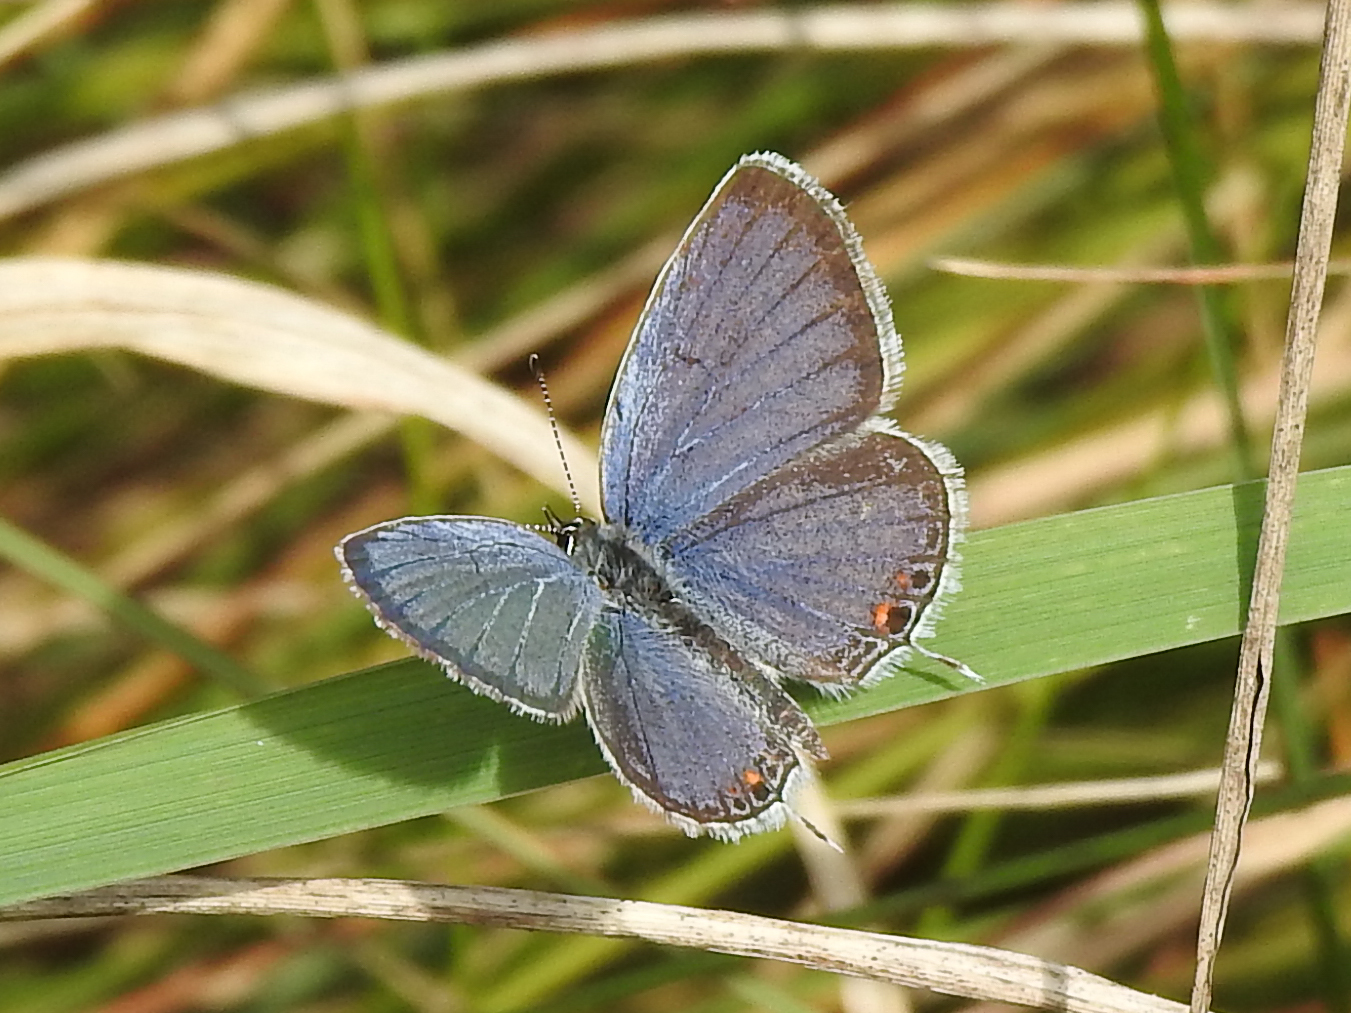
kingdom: Animalia
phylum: Arthropoda
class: Insecta
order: Lepidoptera
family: Lycaenidae
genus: Elkalyce
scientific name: Elkalyce comyntas
